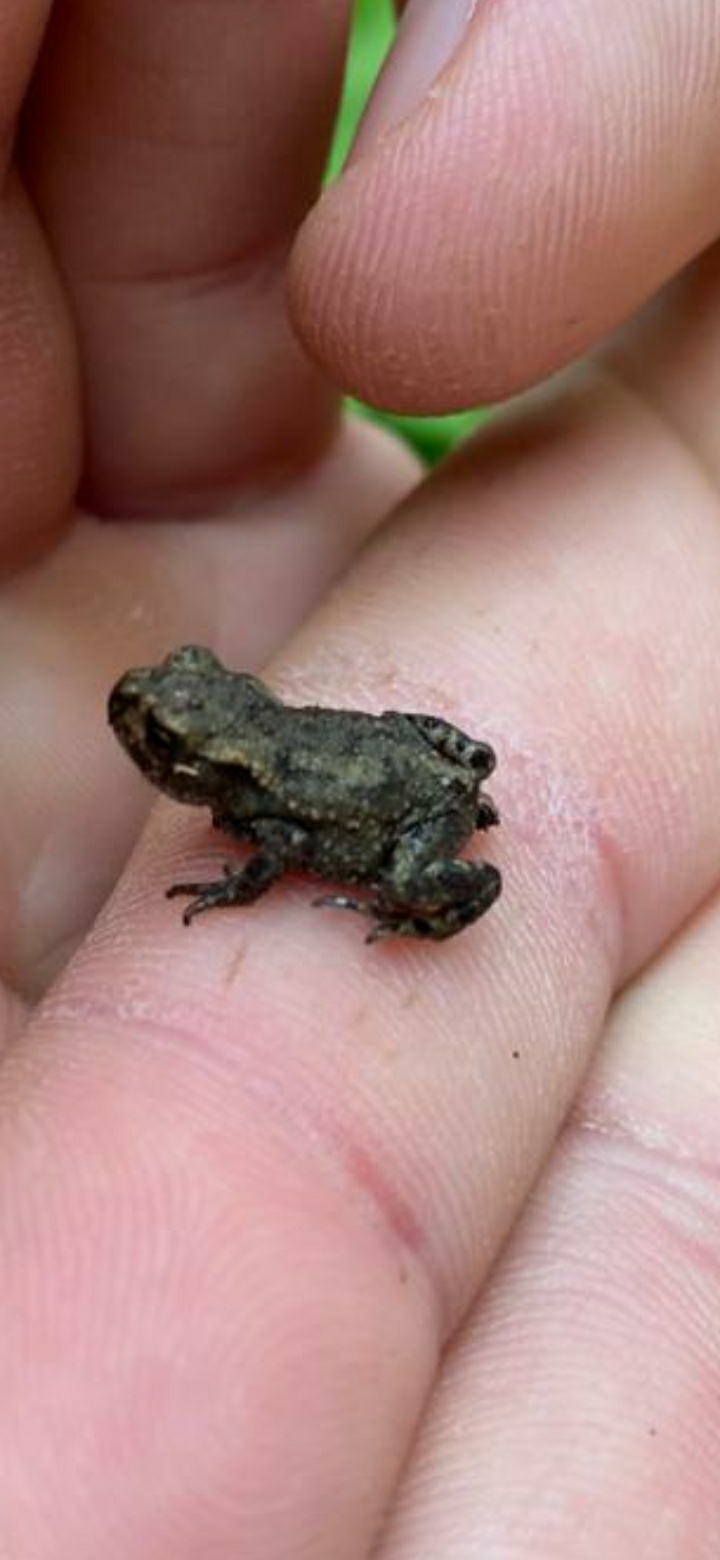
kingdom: Animalia
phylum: Chordata
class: Amphibia
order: Anura
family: Bufonidae
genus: Bufo
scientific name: Bufo bufo
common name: Common toad
